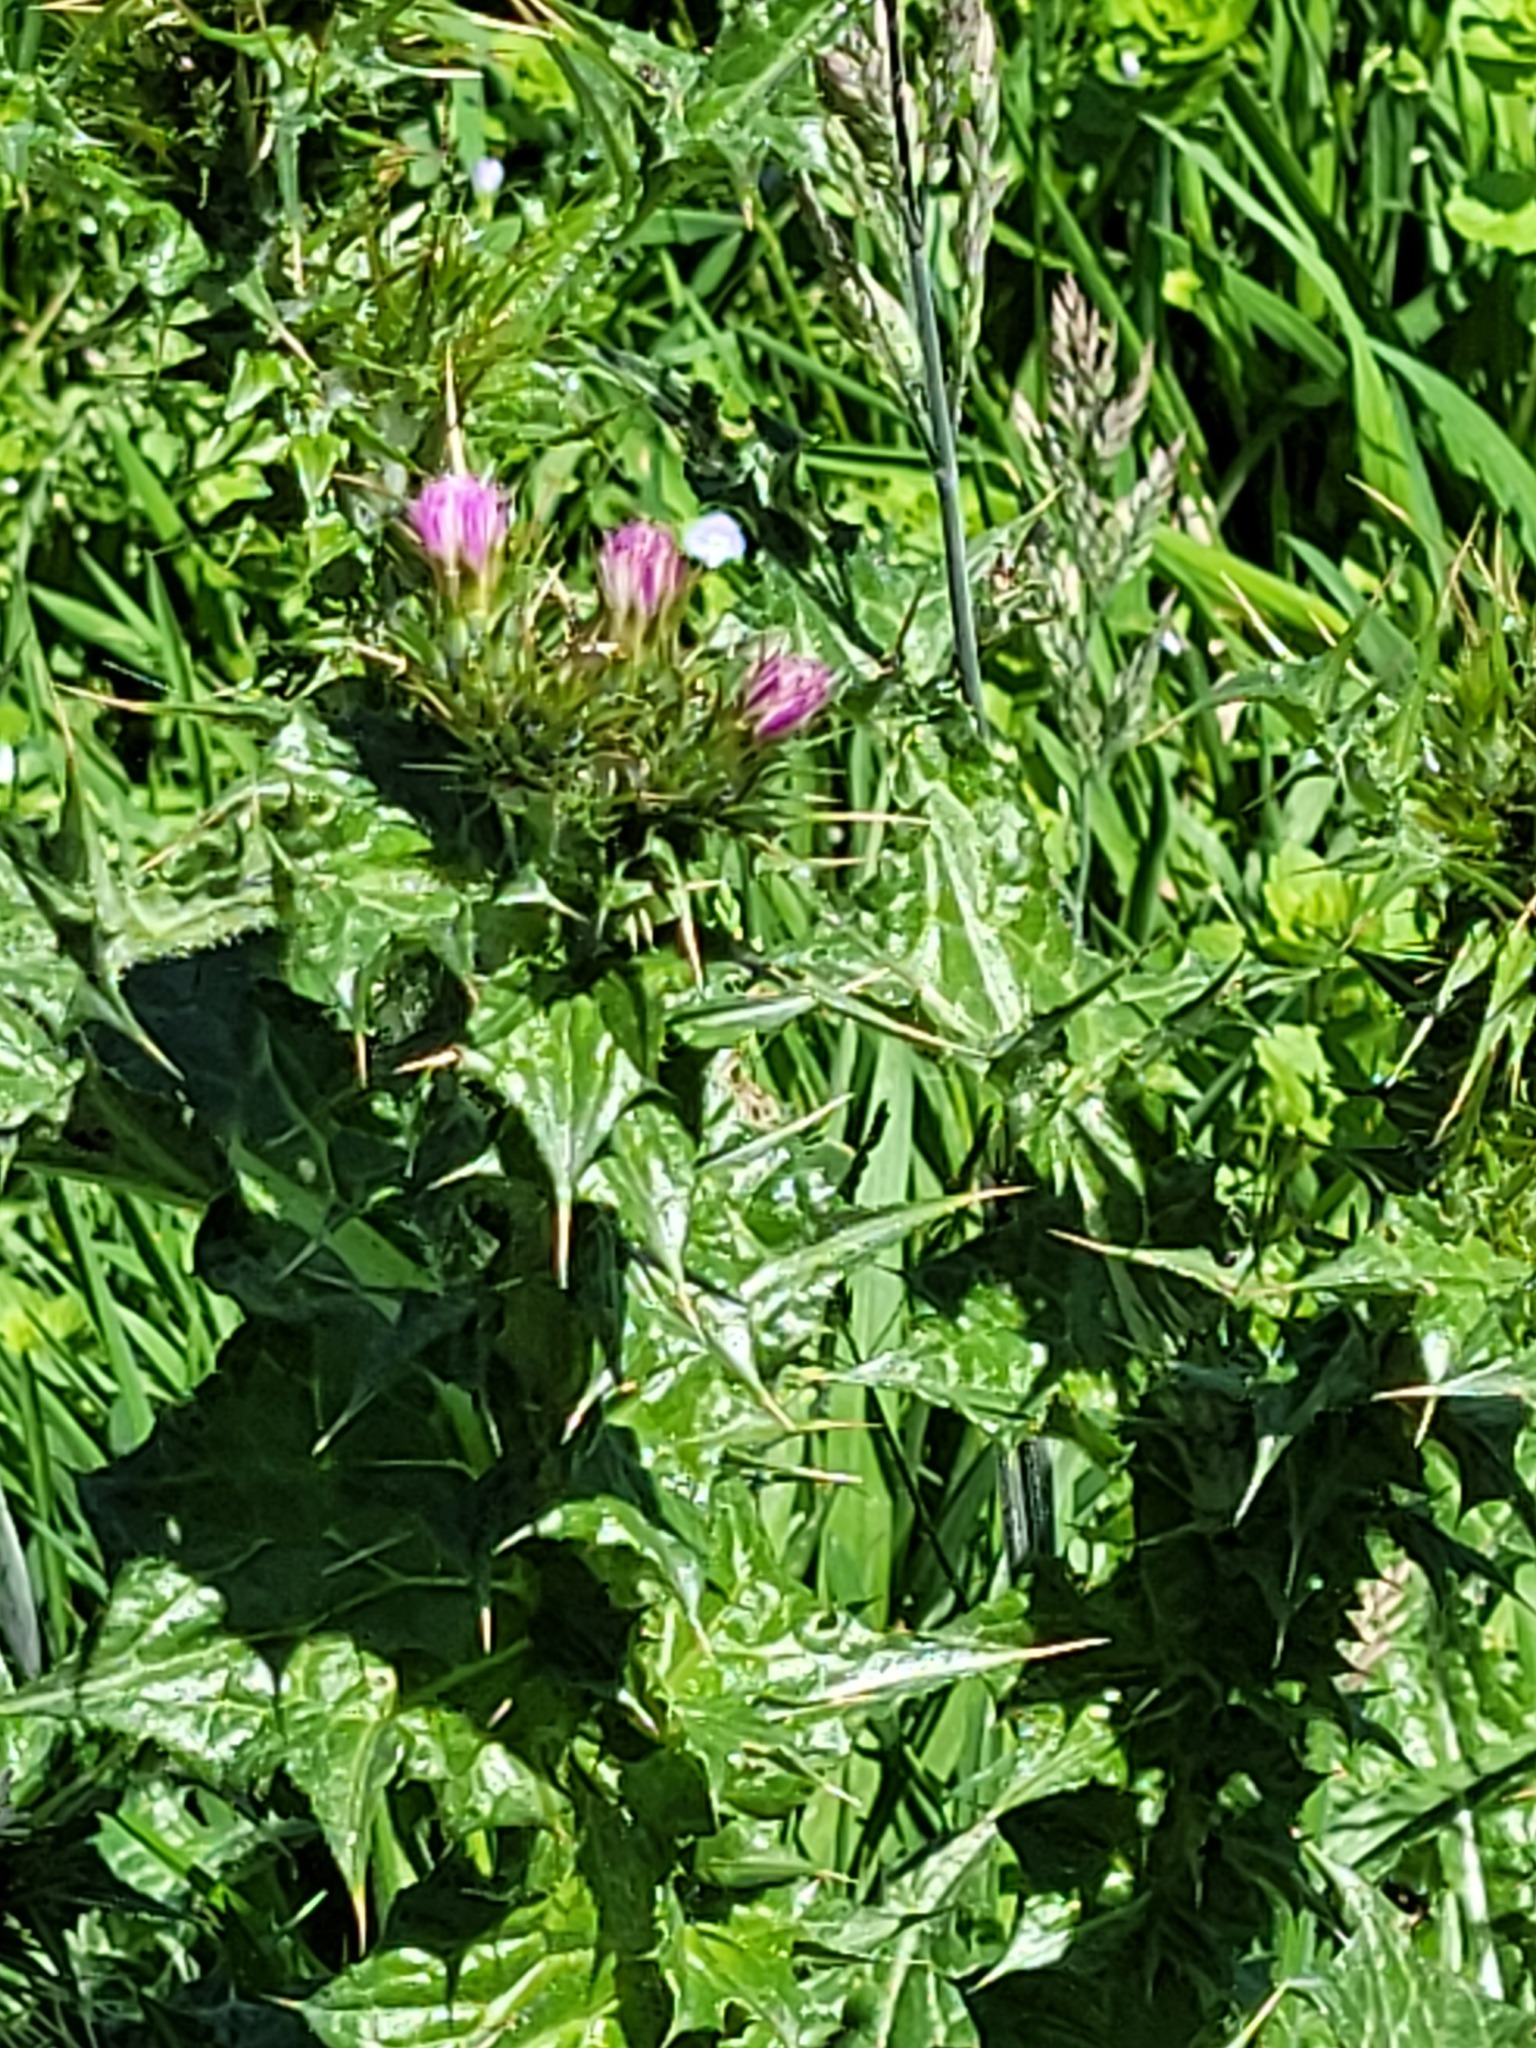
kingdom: Plantae
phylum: Tracheophyta
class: Magnoliopsida
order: Asterales
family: Asteraceae
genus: Carduus
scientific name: Carduus tenuiflorus
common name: Slender thistle
